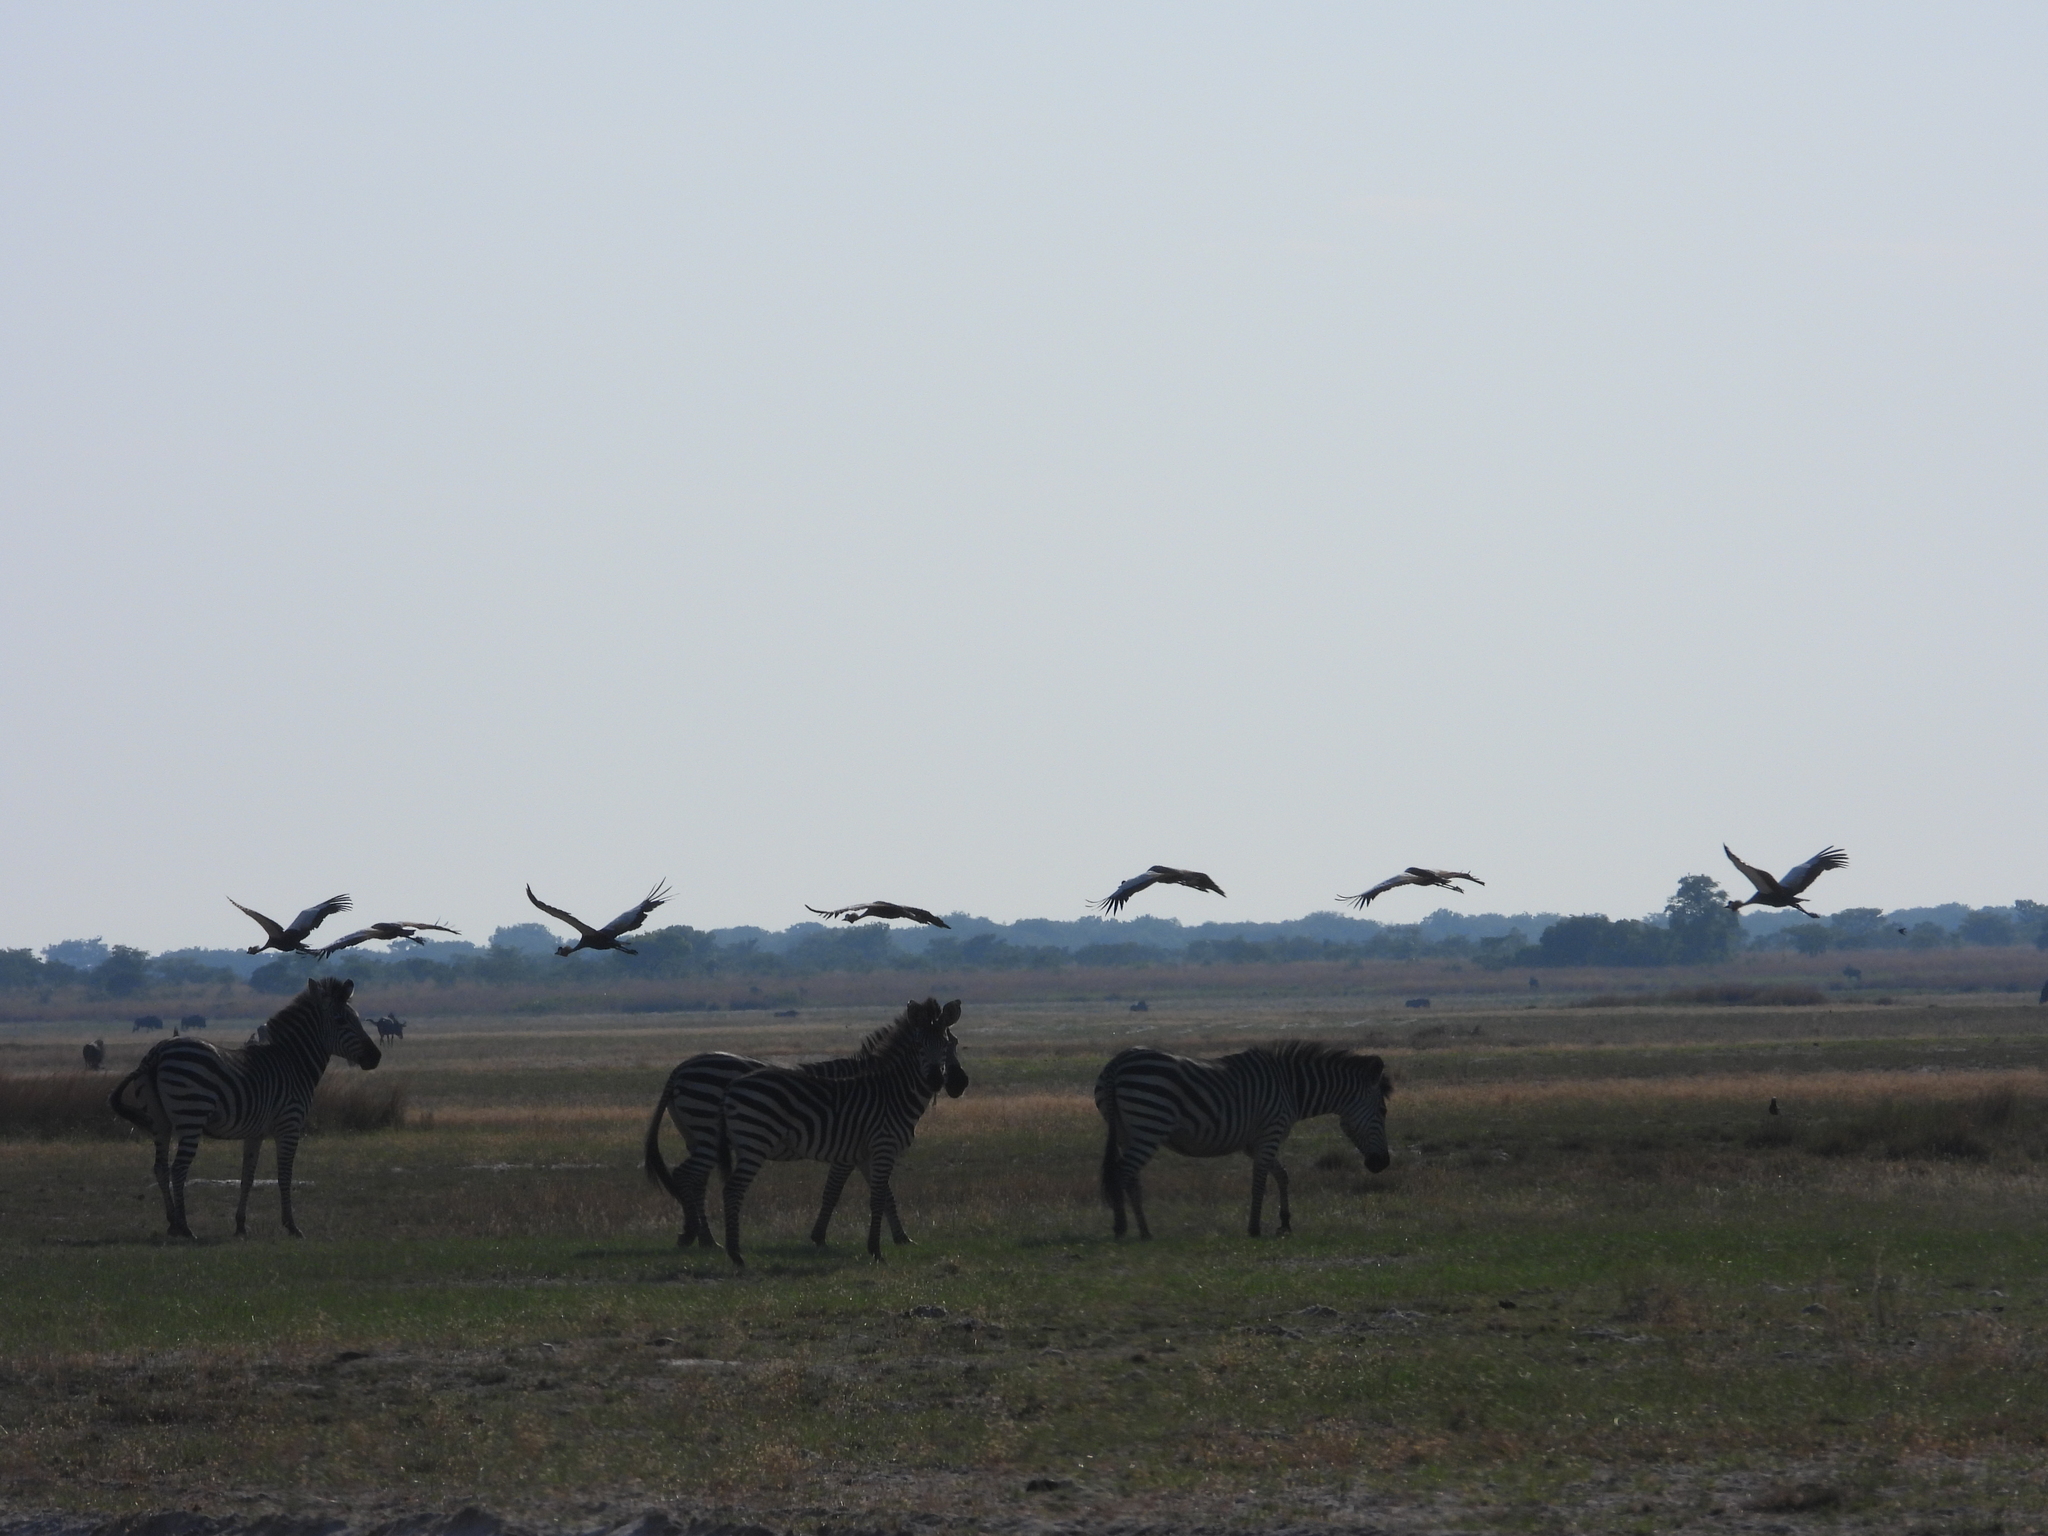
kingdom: Animalia
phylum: Chordata
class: Aves
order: Gruiformes
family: Gruidae
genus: Balearica
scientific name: Balearica regulorum
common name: Grey crowned crane
